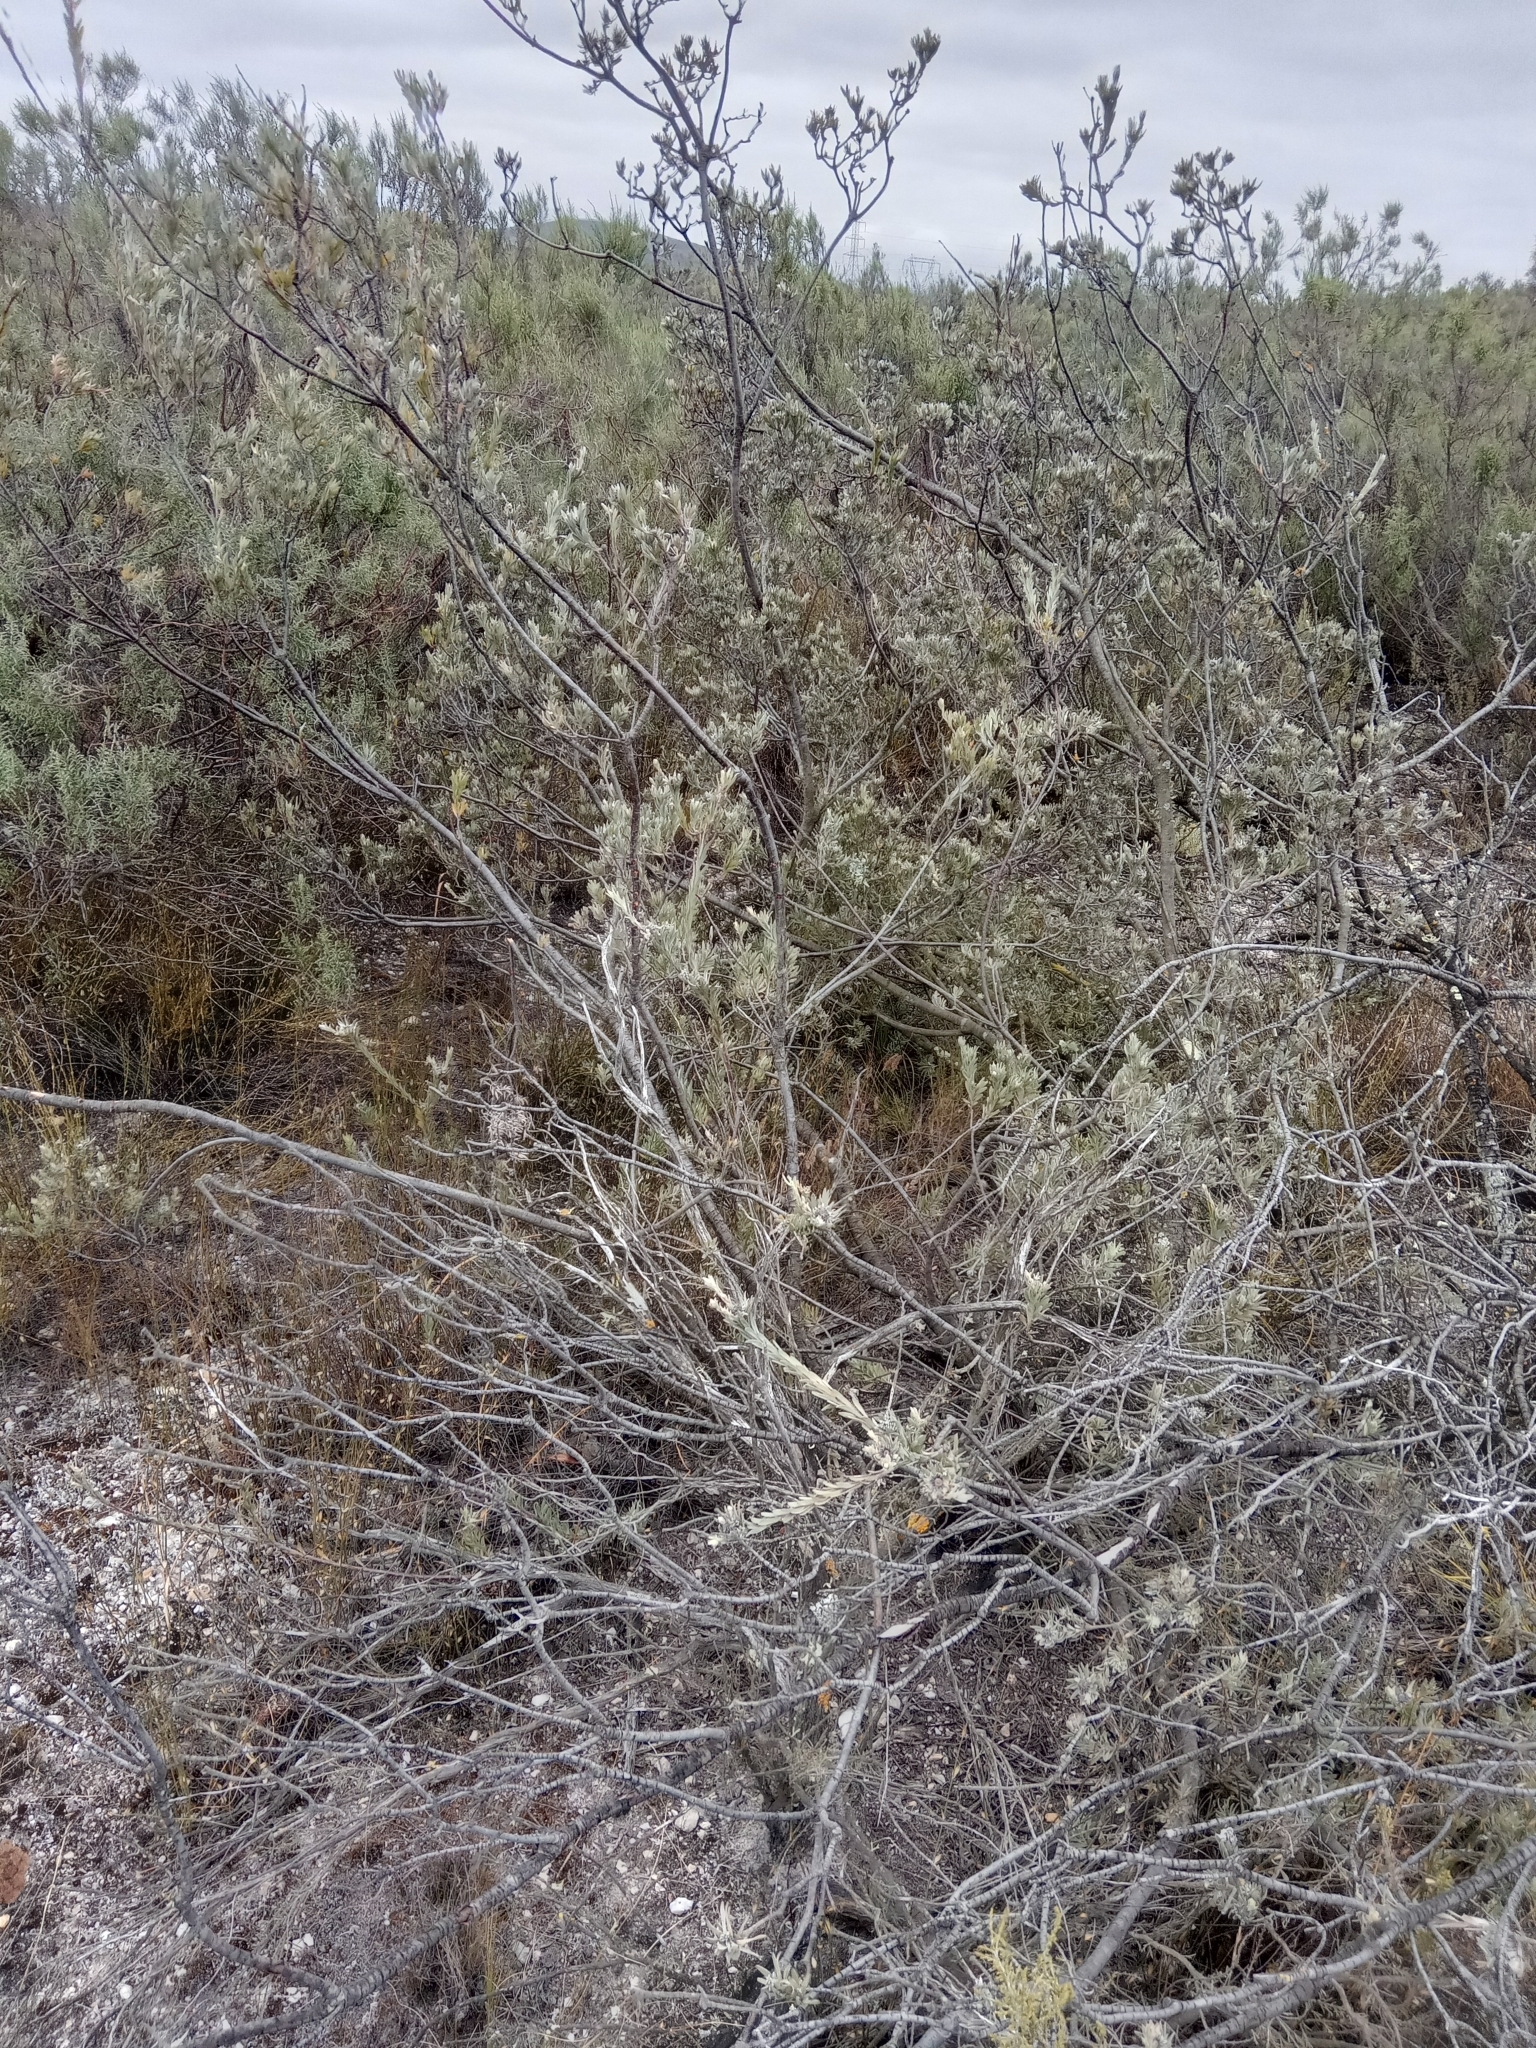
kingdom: Plantae
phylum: Tracheophyta
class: Magnoliopsida
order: Proteales
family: Proteaceae
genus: Leucadendron
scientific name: Leucadendron verticillatum
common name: Klapmuts conebush
